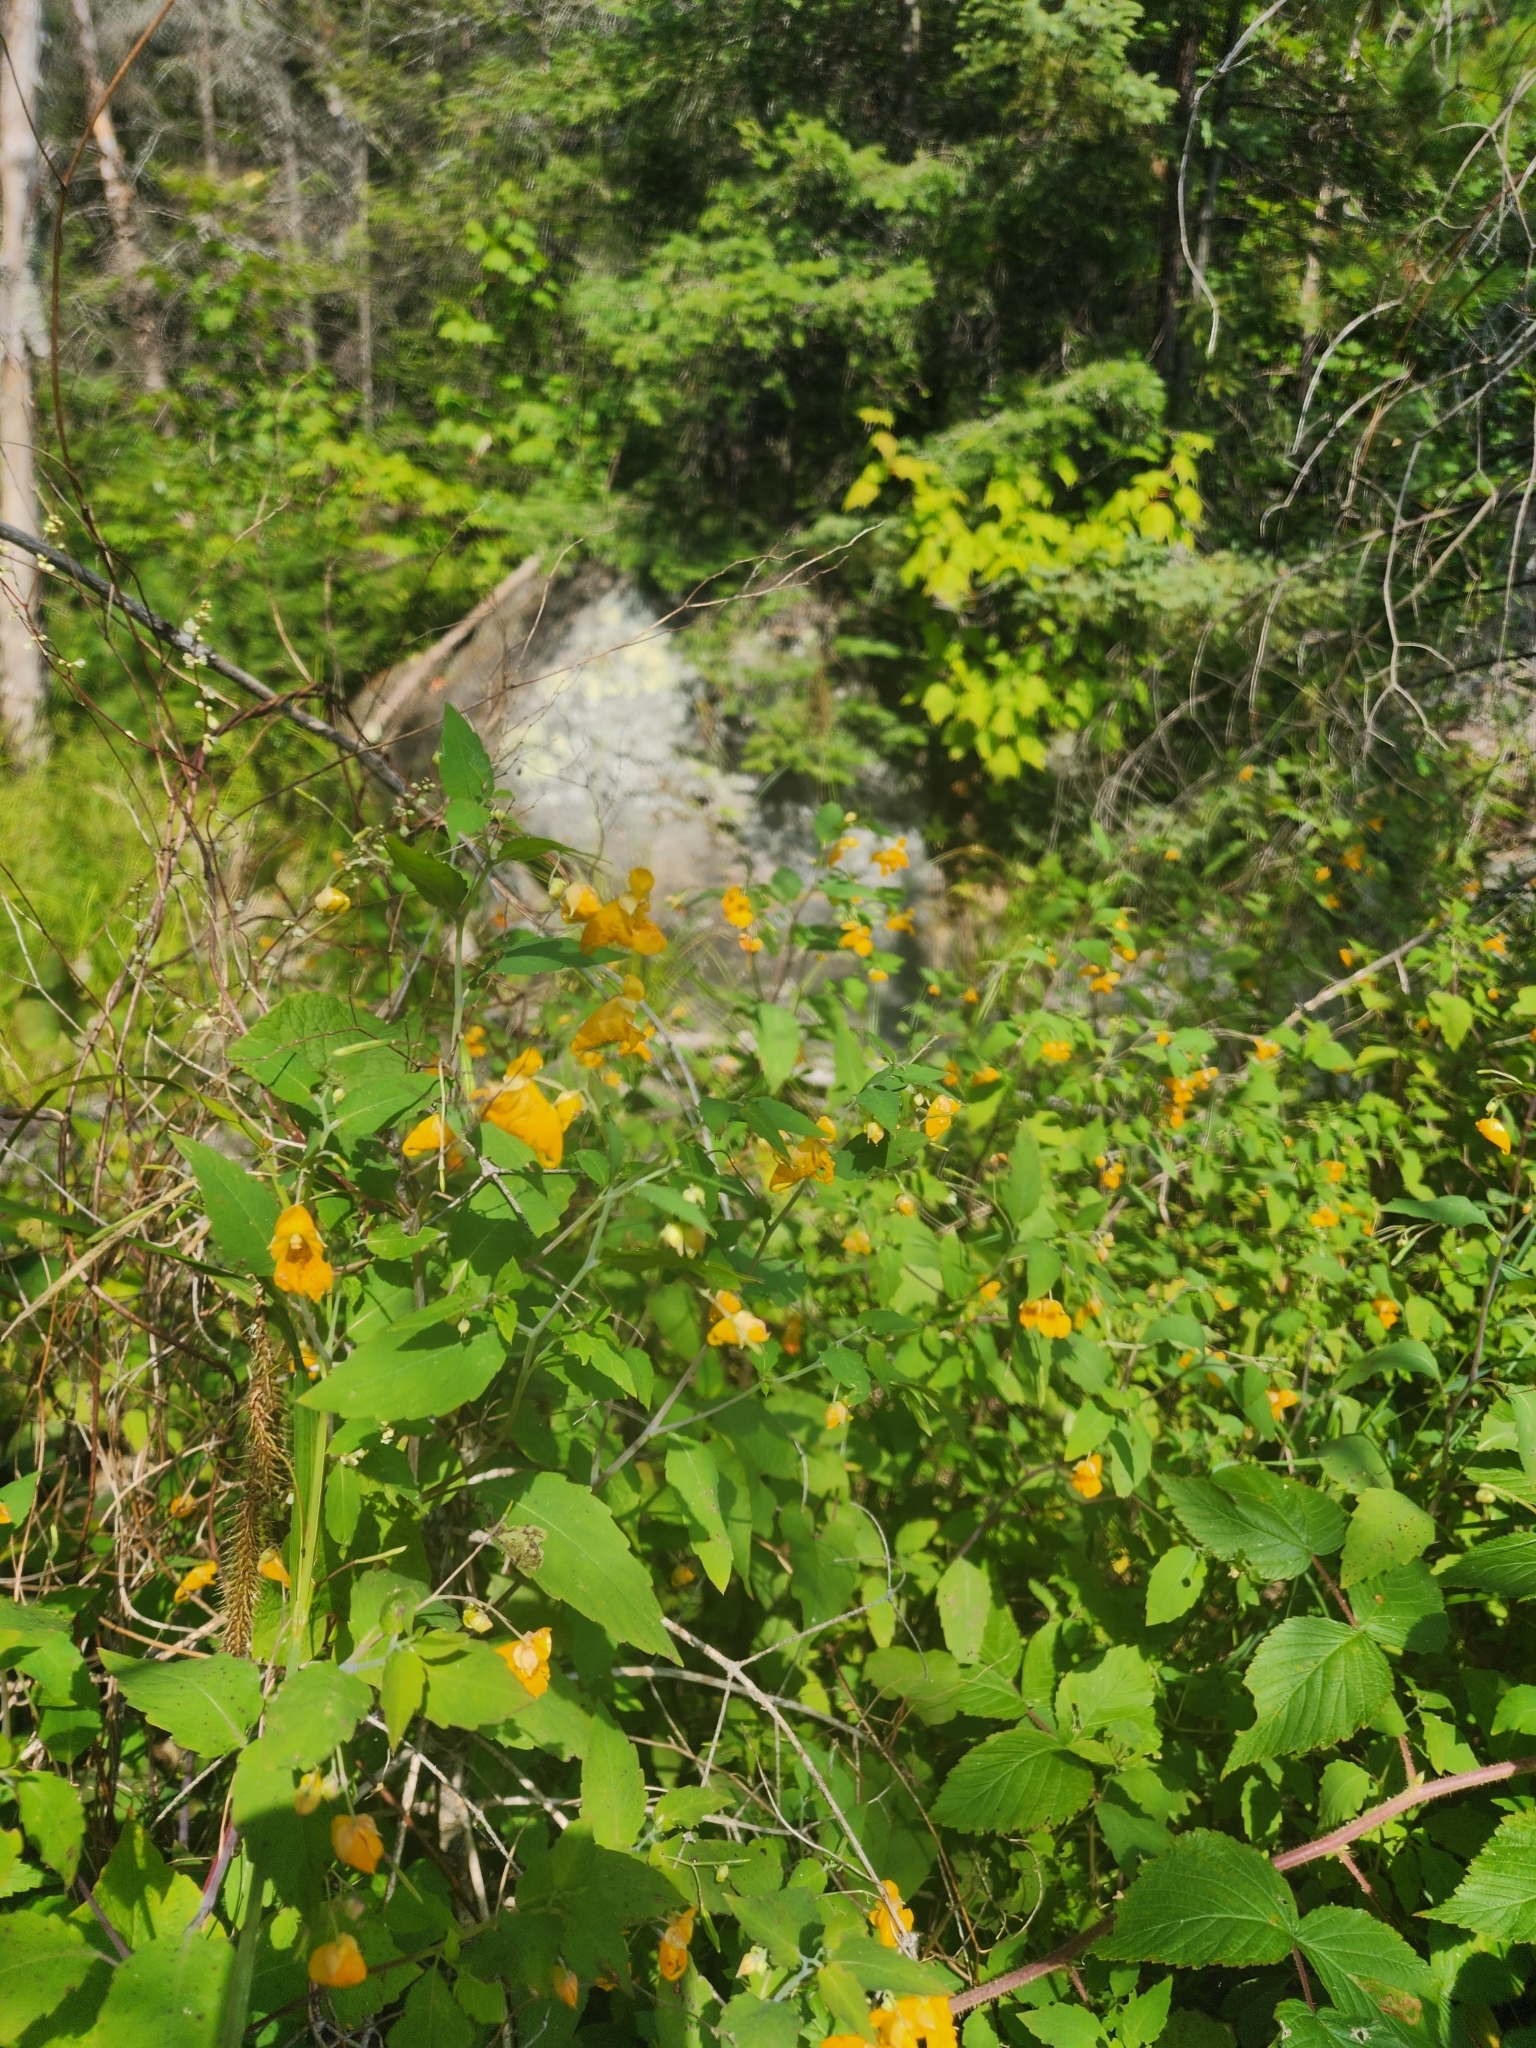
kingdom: Plantae
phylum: Tracheophyta
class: Magnoliopsida
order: Ericales
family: Balsaminaceae
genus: Impatiens
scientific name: Impatiens capensis
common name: Orange balsam
